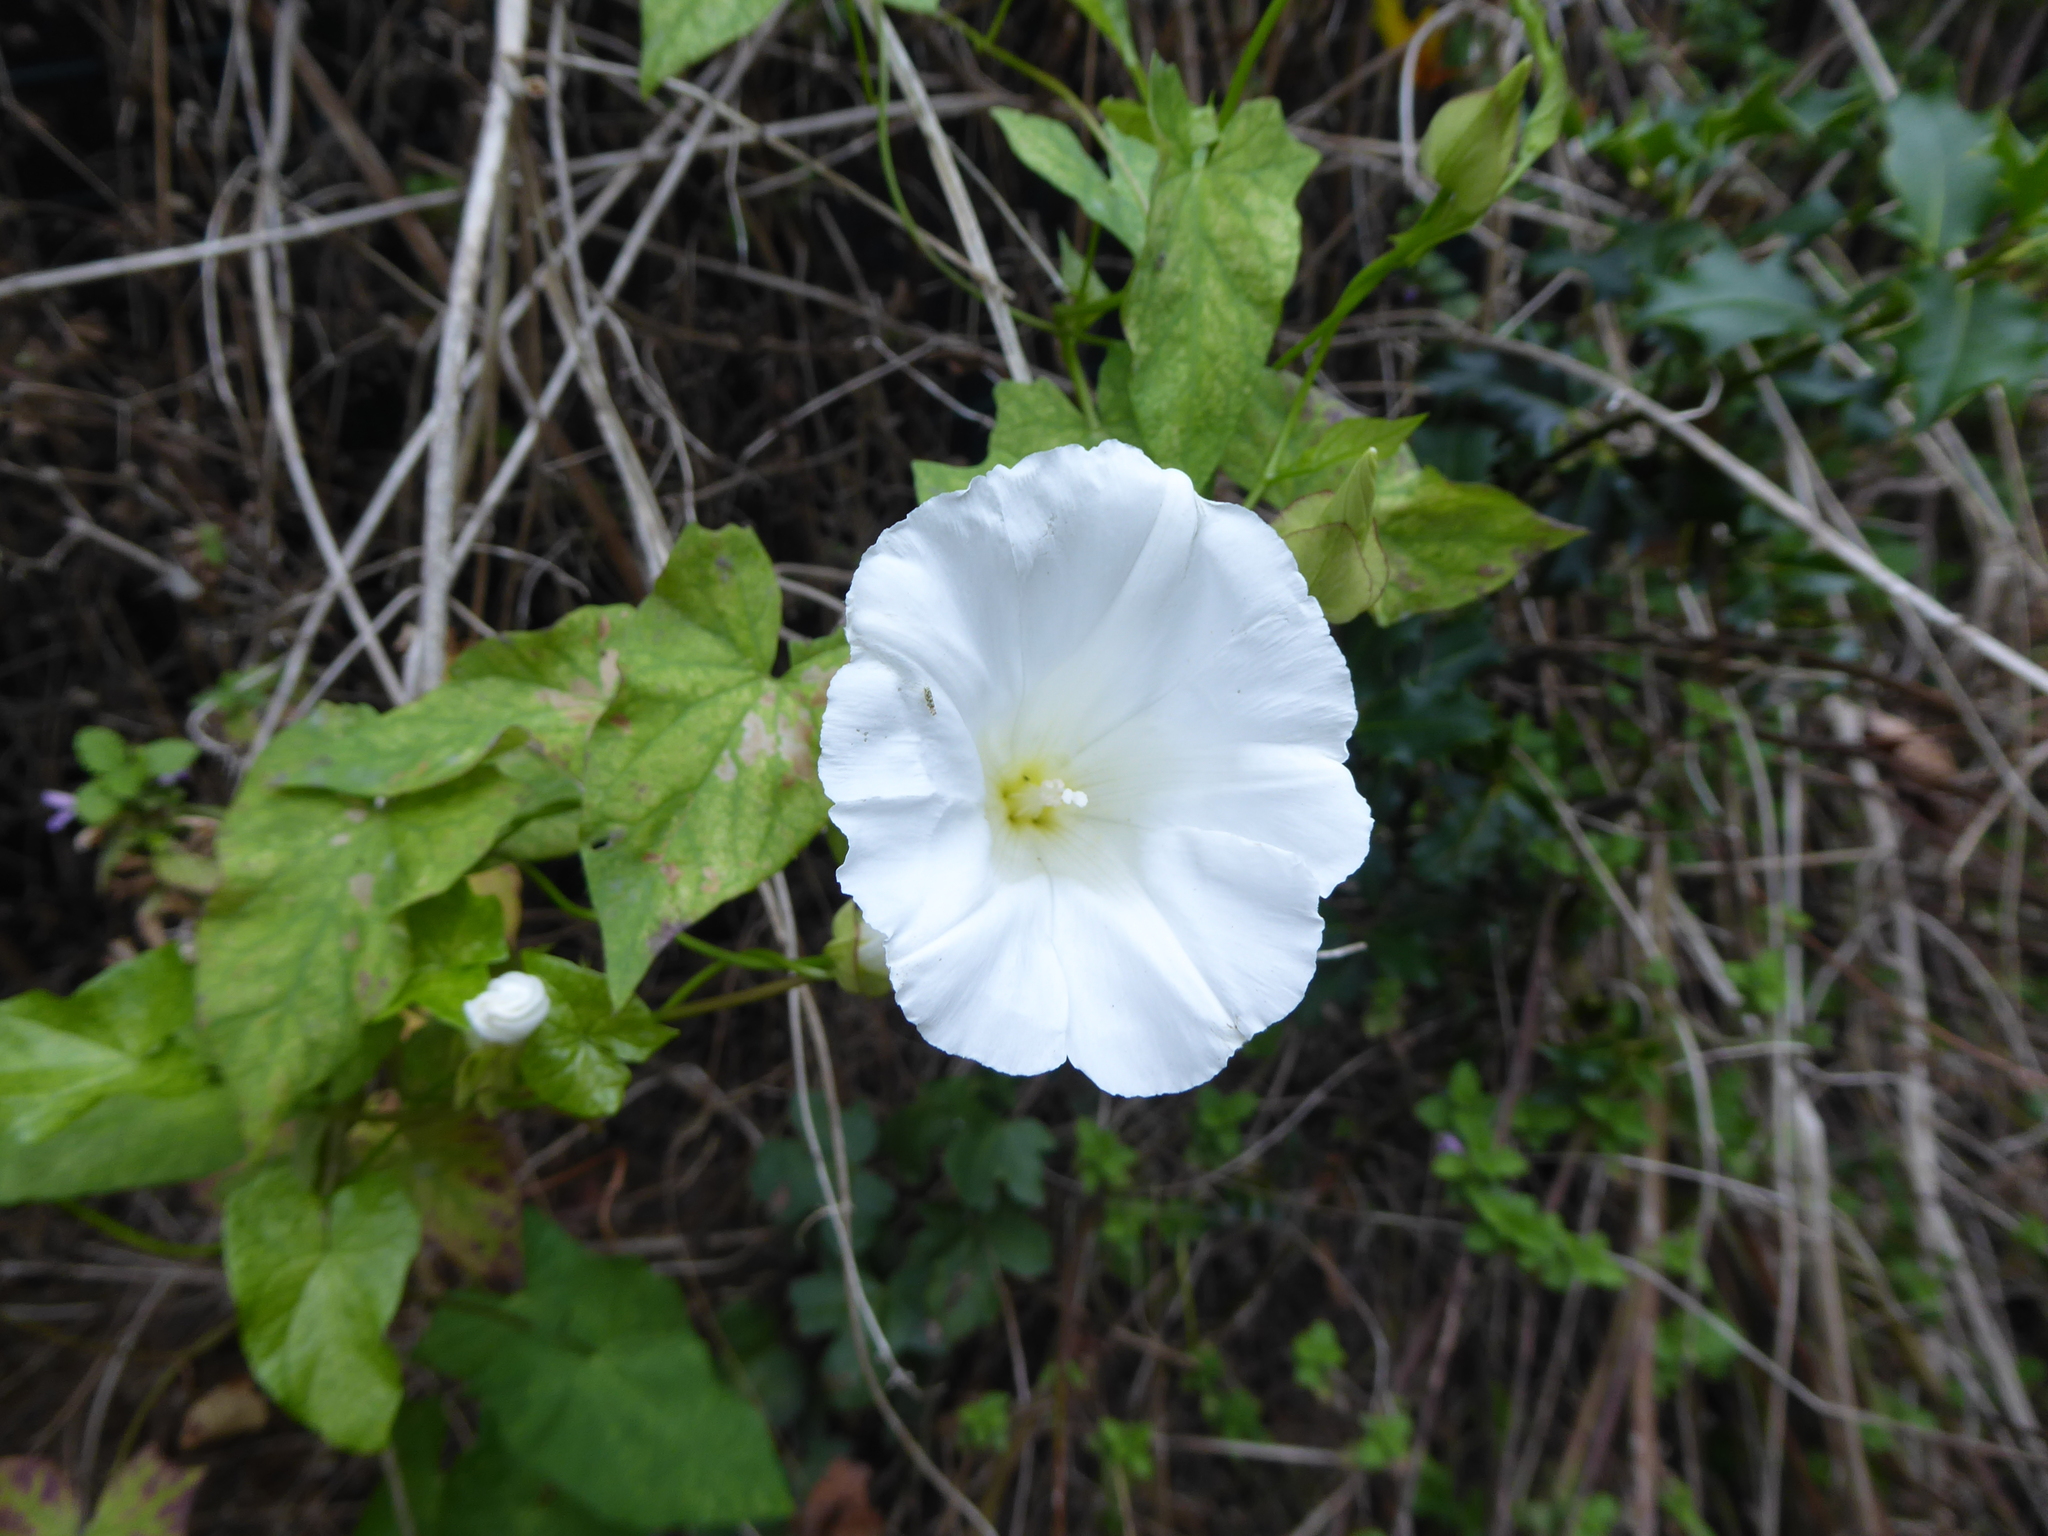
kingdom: Plantae
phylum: Tracheophyta
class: Magnoliopsida
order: Solanales
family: Convolvulaceae
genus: Calystegia
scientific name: Calystegia sepium
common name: Hedge bindweed
